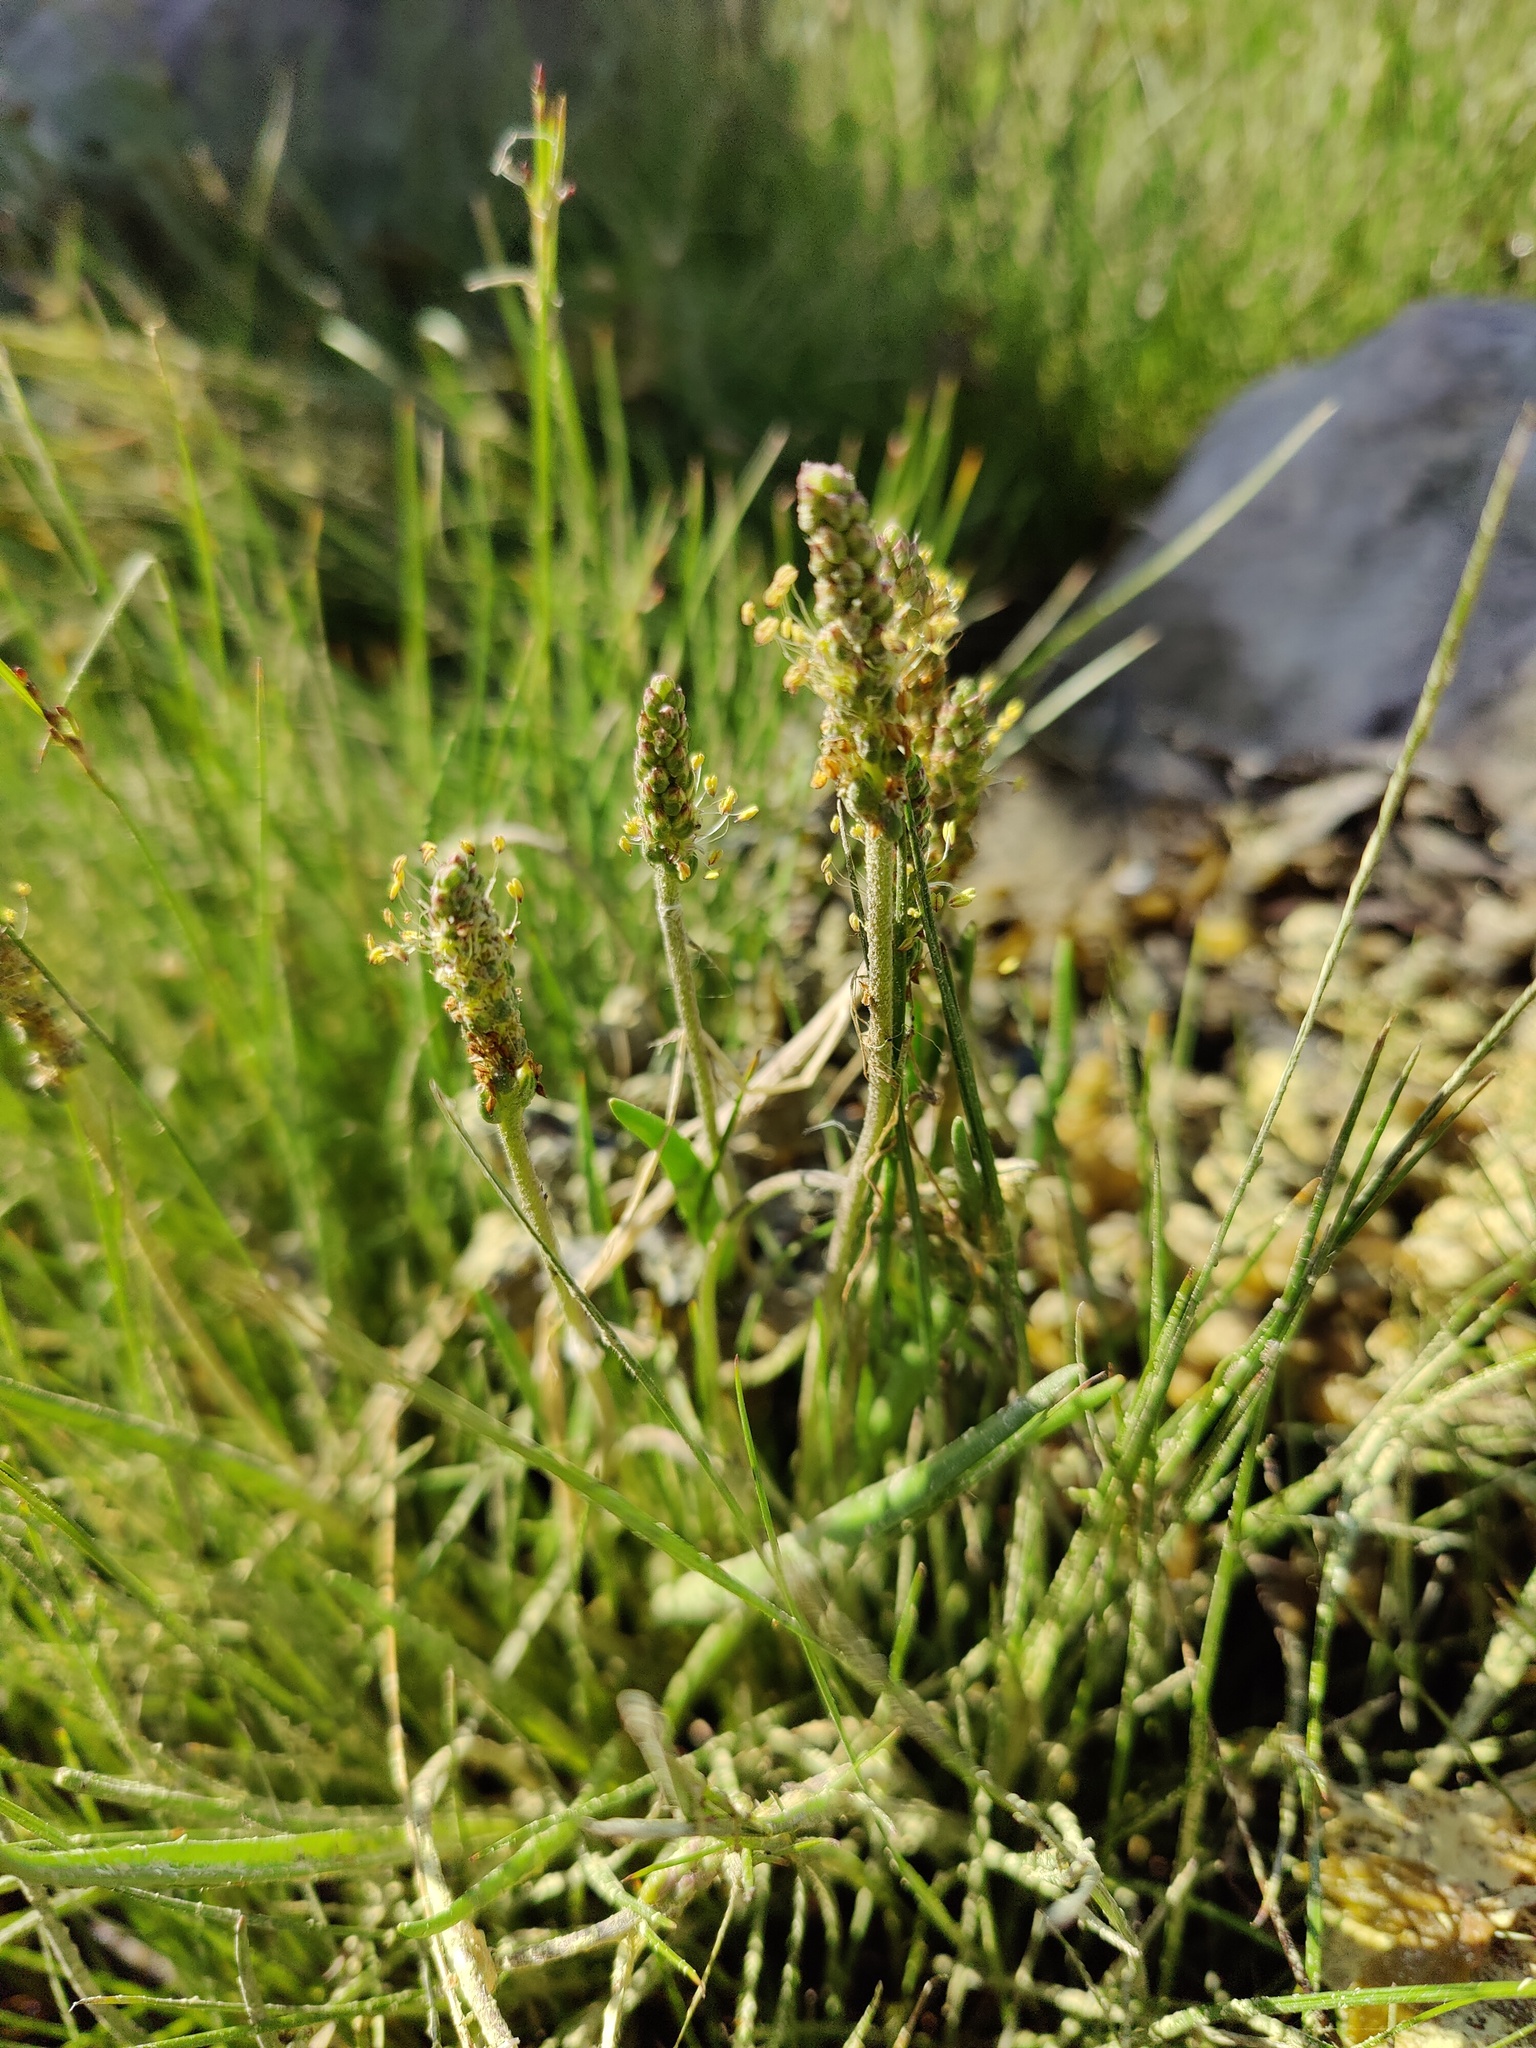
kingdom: Plantae
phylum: Tracheophyta
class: Magnoliopsida
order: Lamiales
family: Plantaginaceae
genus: Plantago
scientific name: Plantago maritima
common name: Sea plantain
